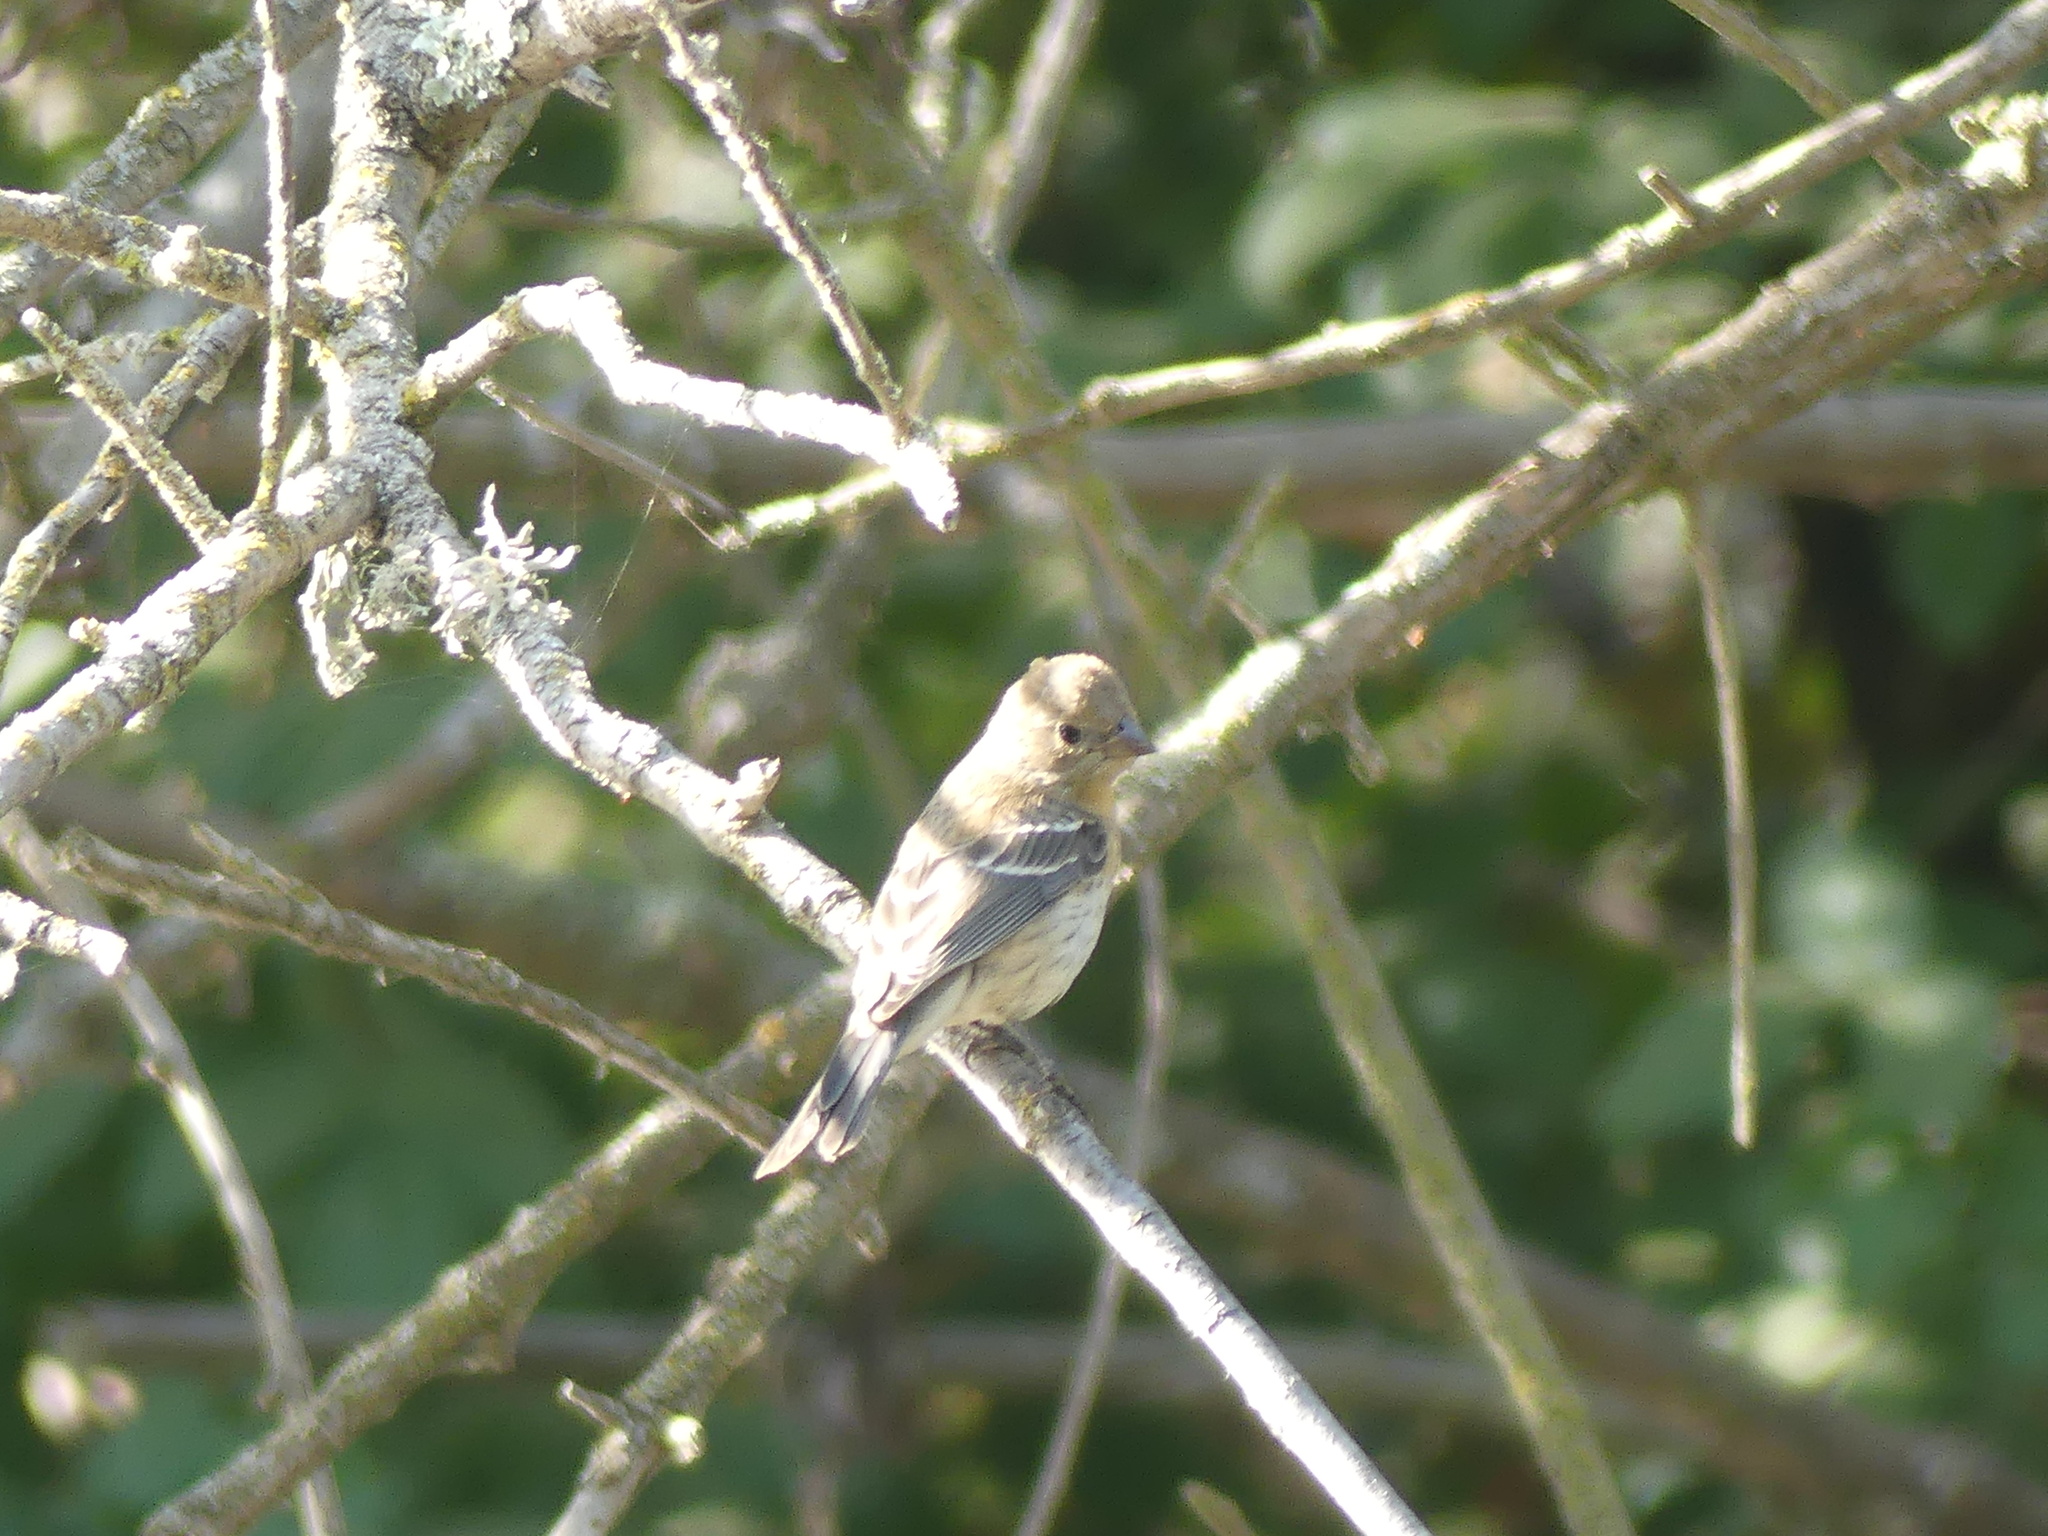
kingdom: Animalia
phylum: Chordata
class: Aves
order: Passeriformes
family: Cardinalidae
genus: Passerina
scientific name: Passerina amoena
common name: Lazuli bunting
